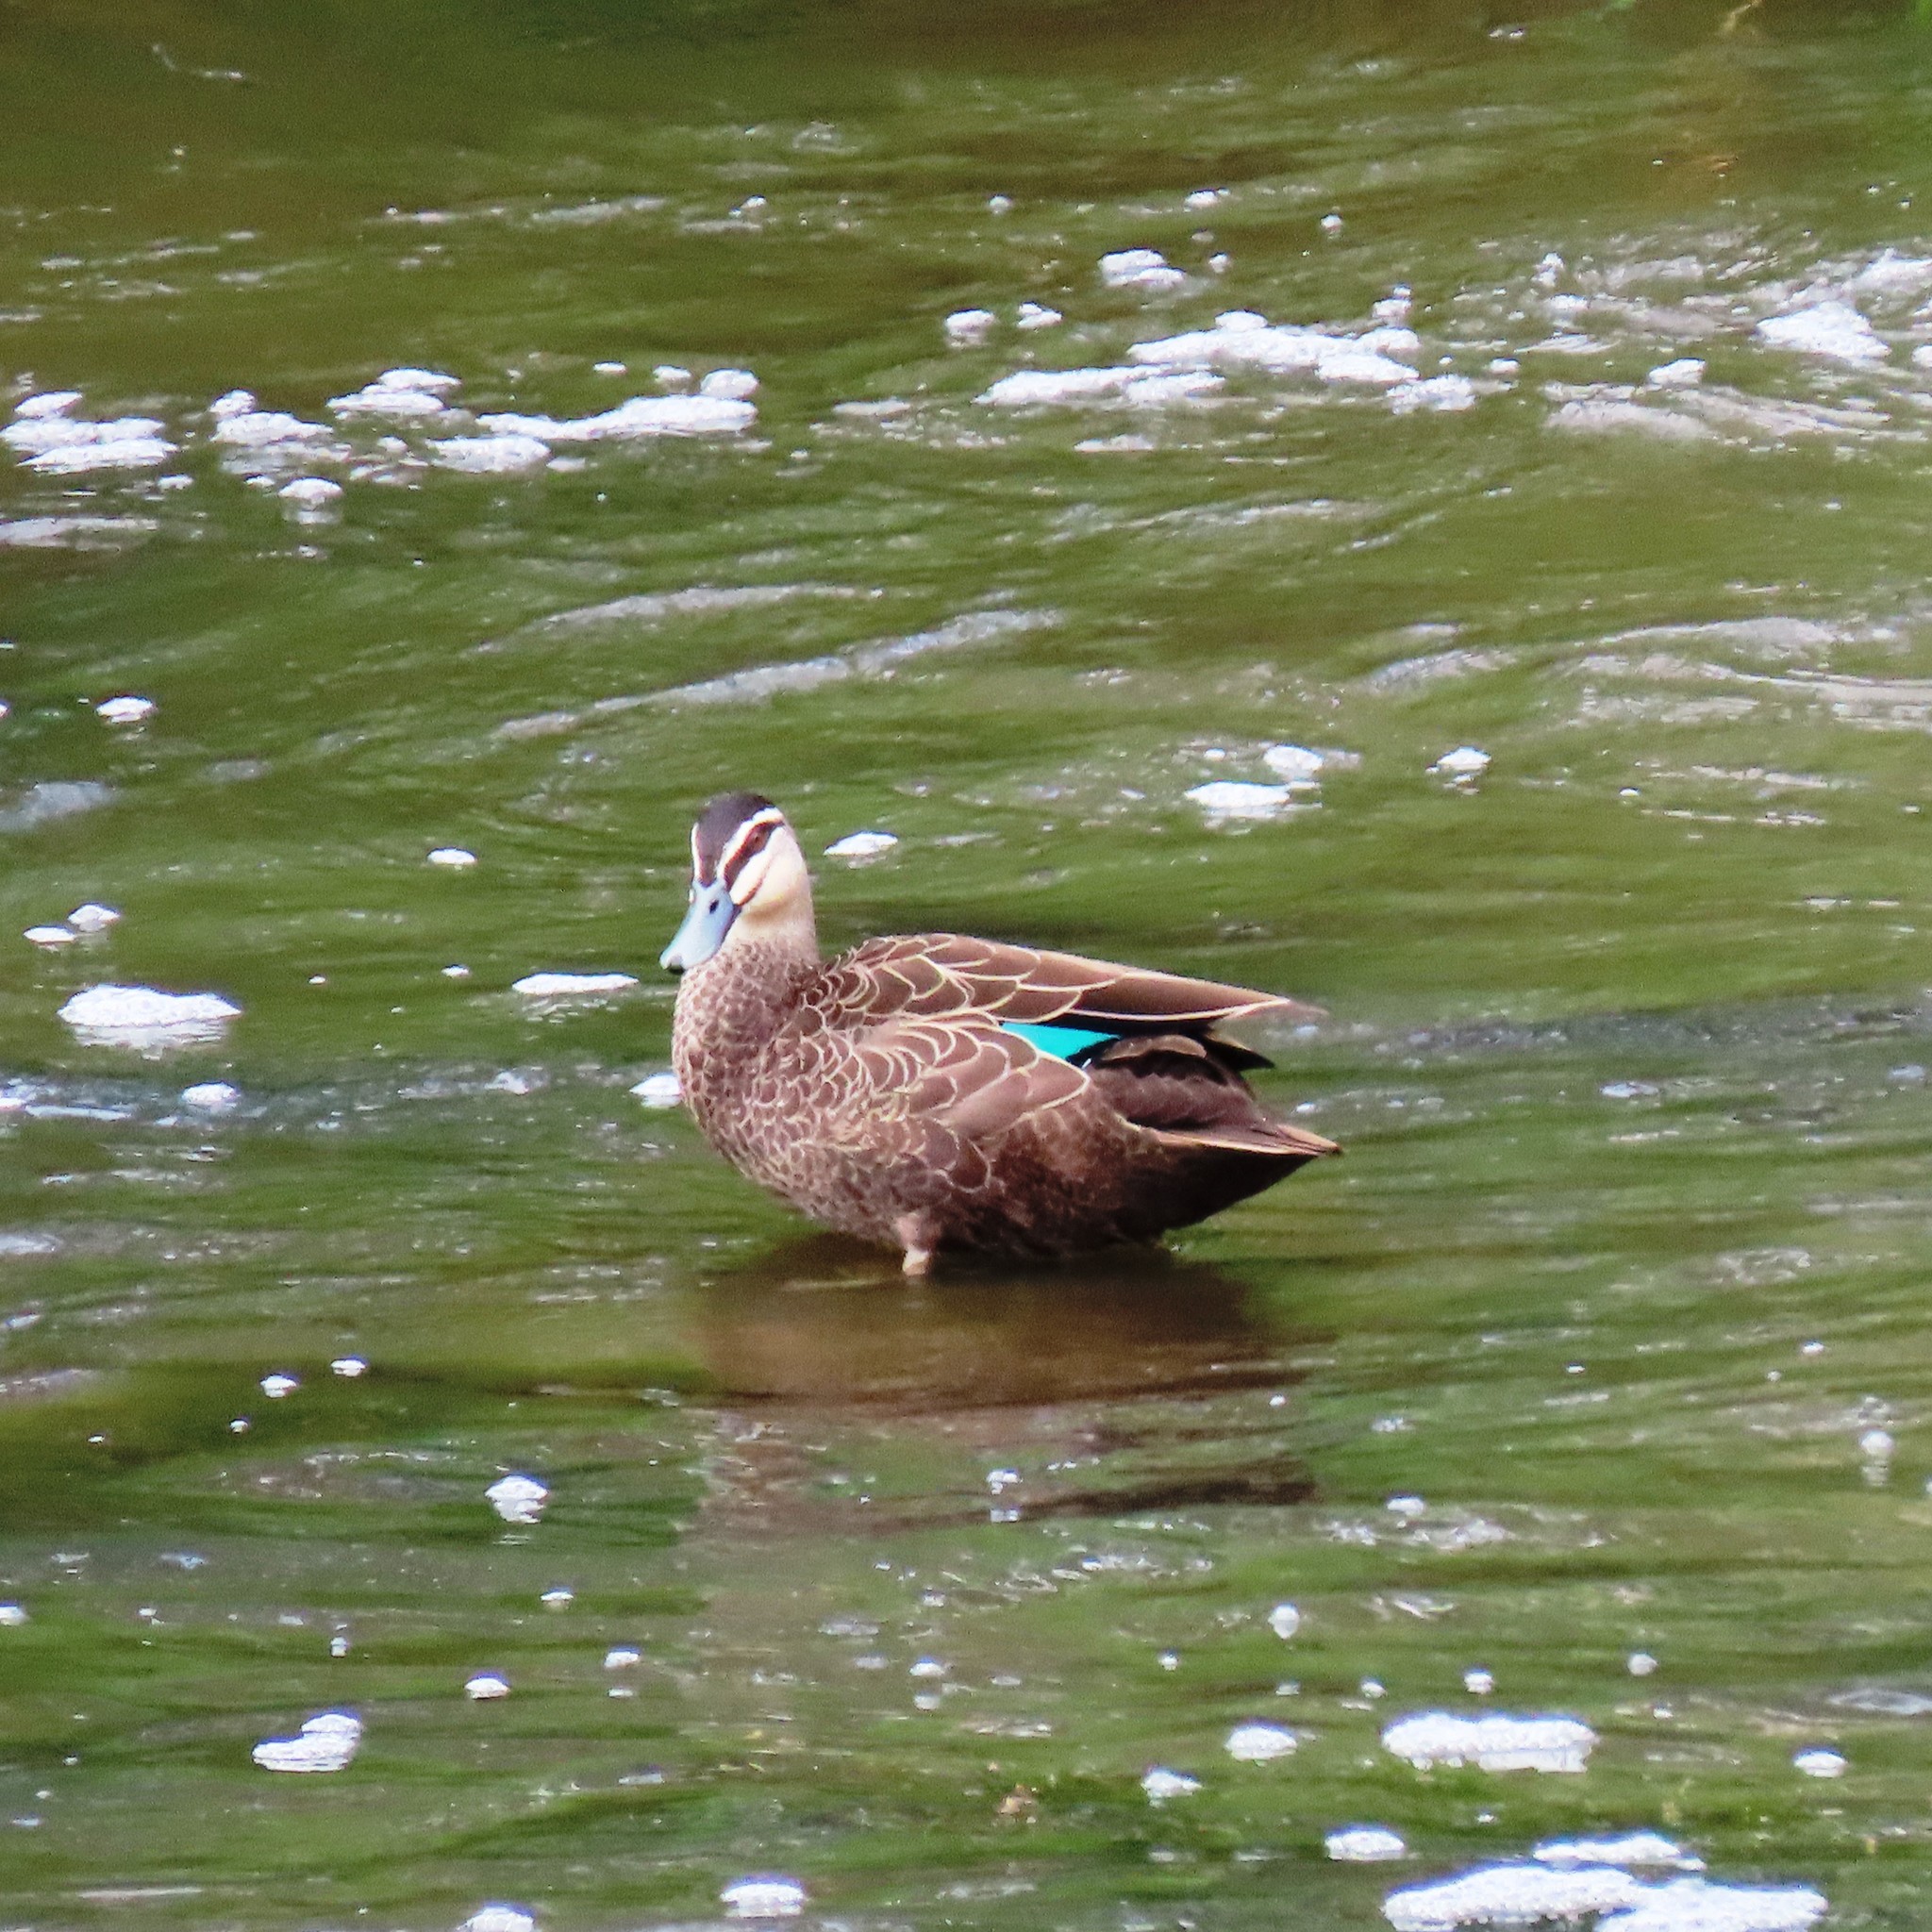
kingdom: Animalia
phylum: Chordata
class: Aves
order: Anseriformes
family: Anatidae
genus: Anas
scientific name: Anas superciliosa
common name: Pacific black duck
